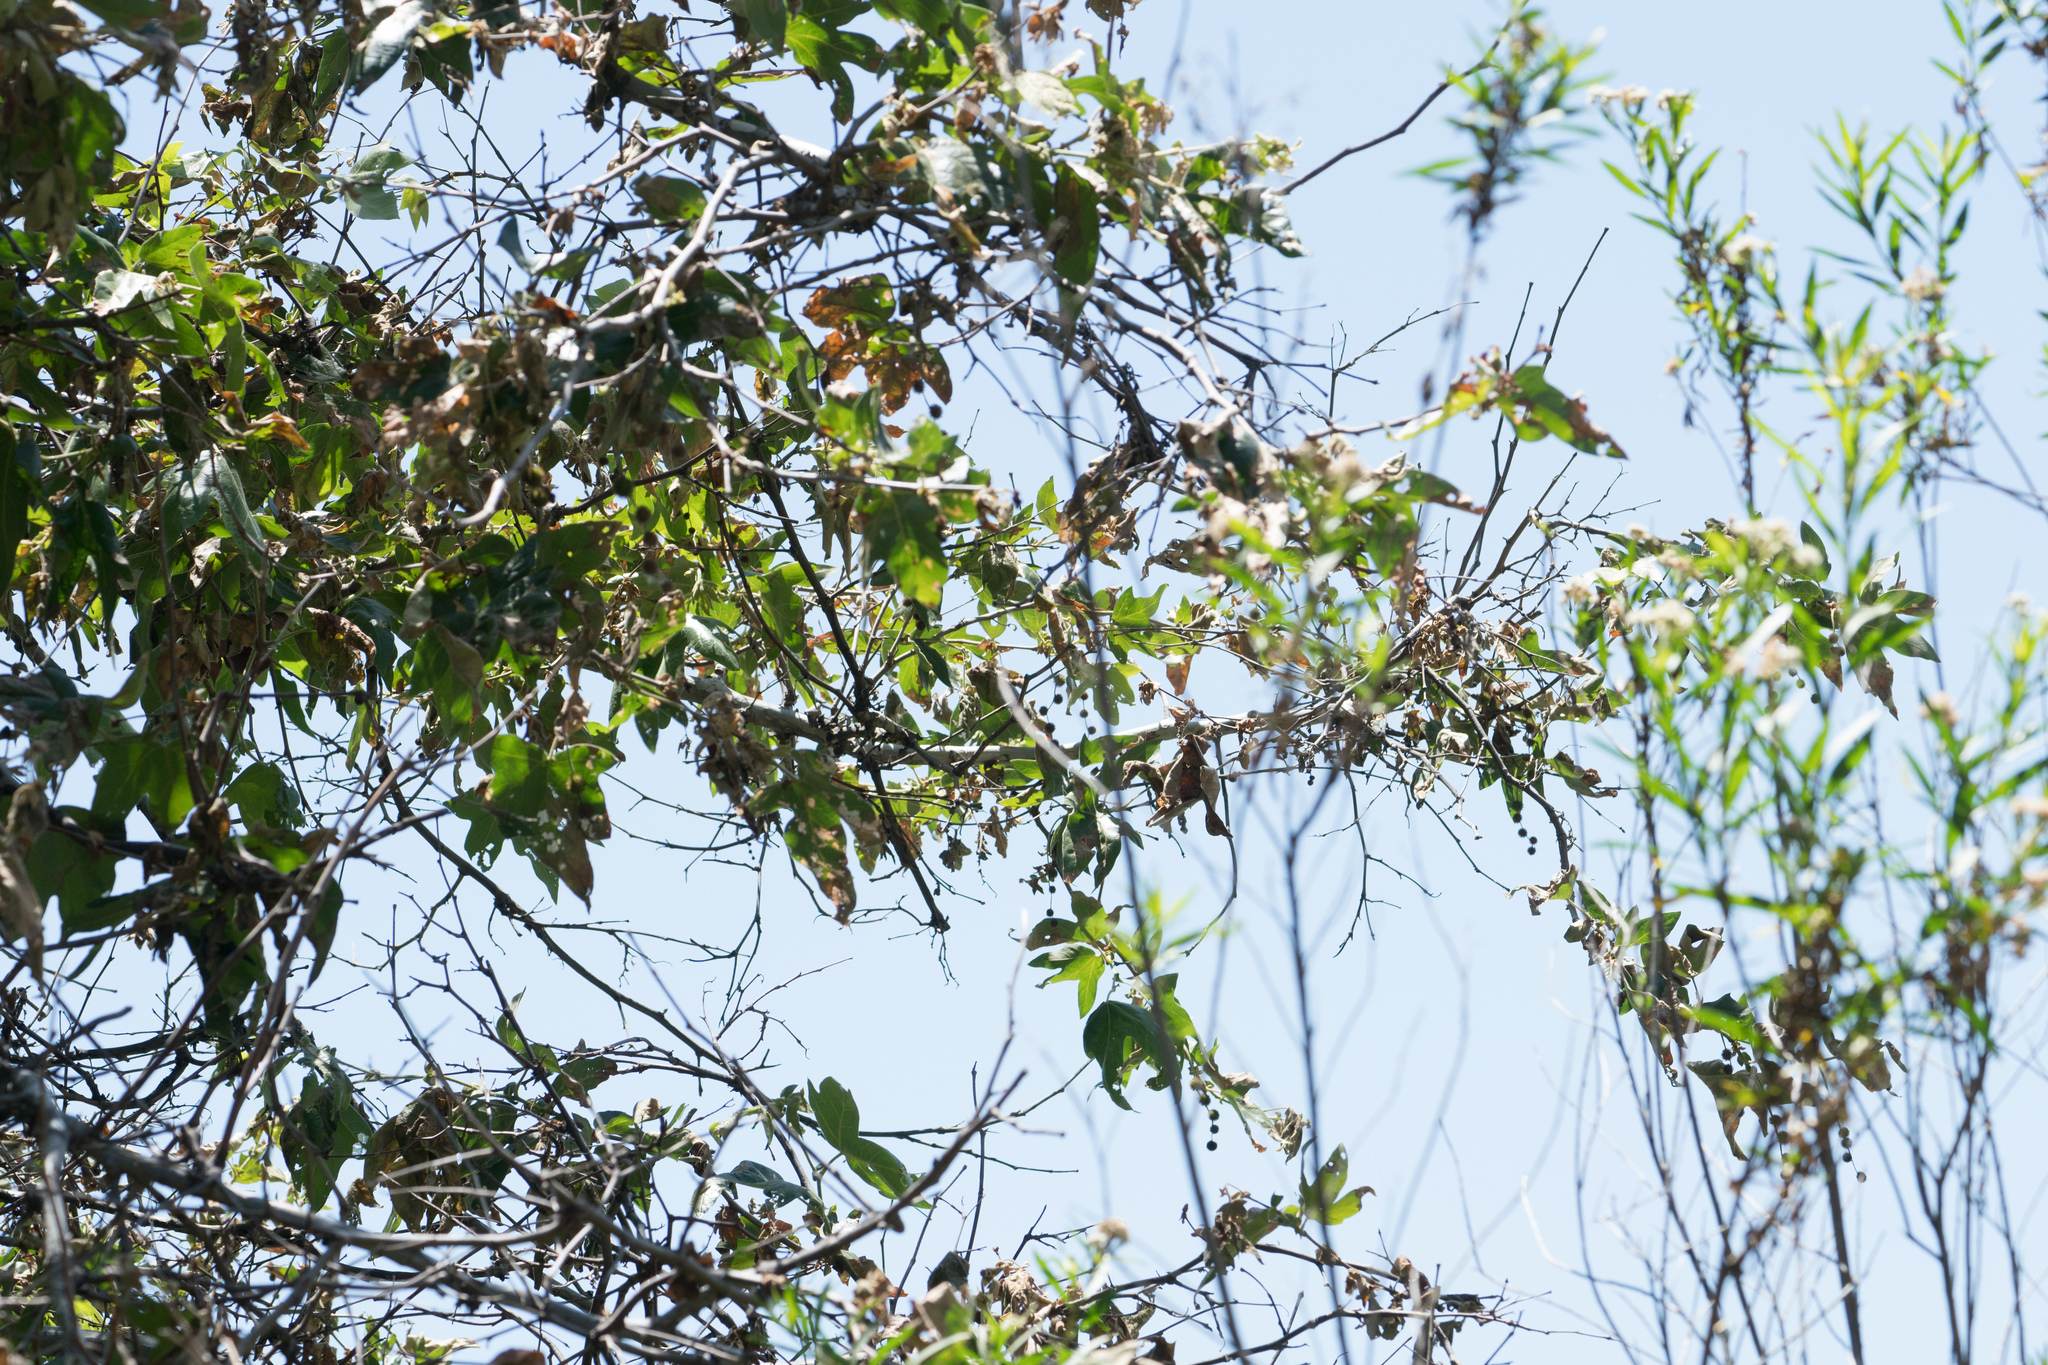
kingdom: Plantae
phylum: Tracheophyta
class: Magnoliopsida
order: Proteales
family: Platanaceae
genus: Platanus
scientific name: Platanus racemosa
